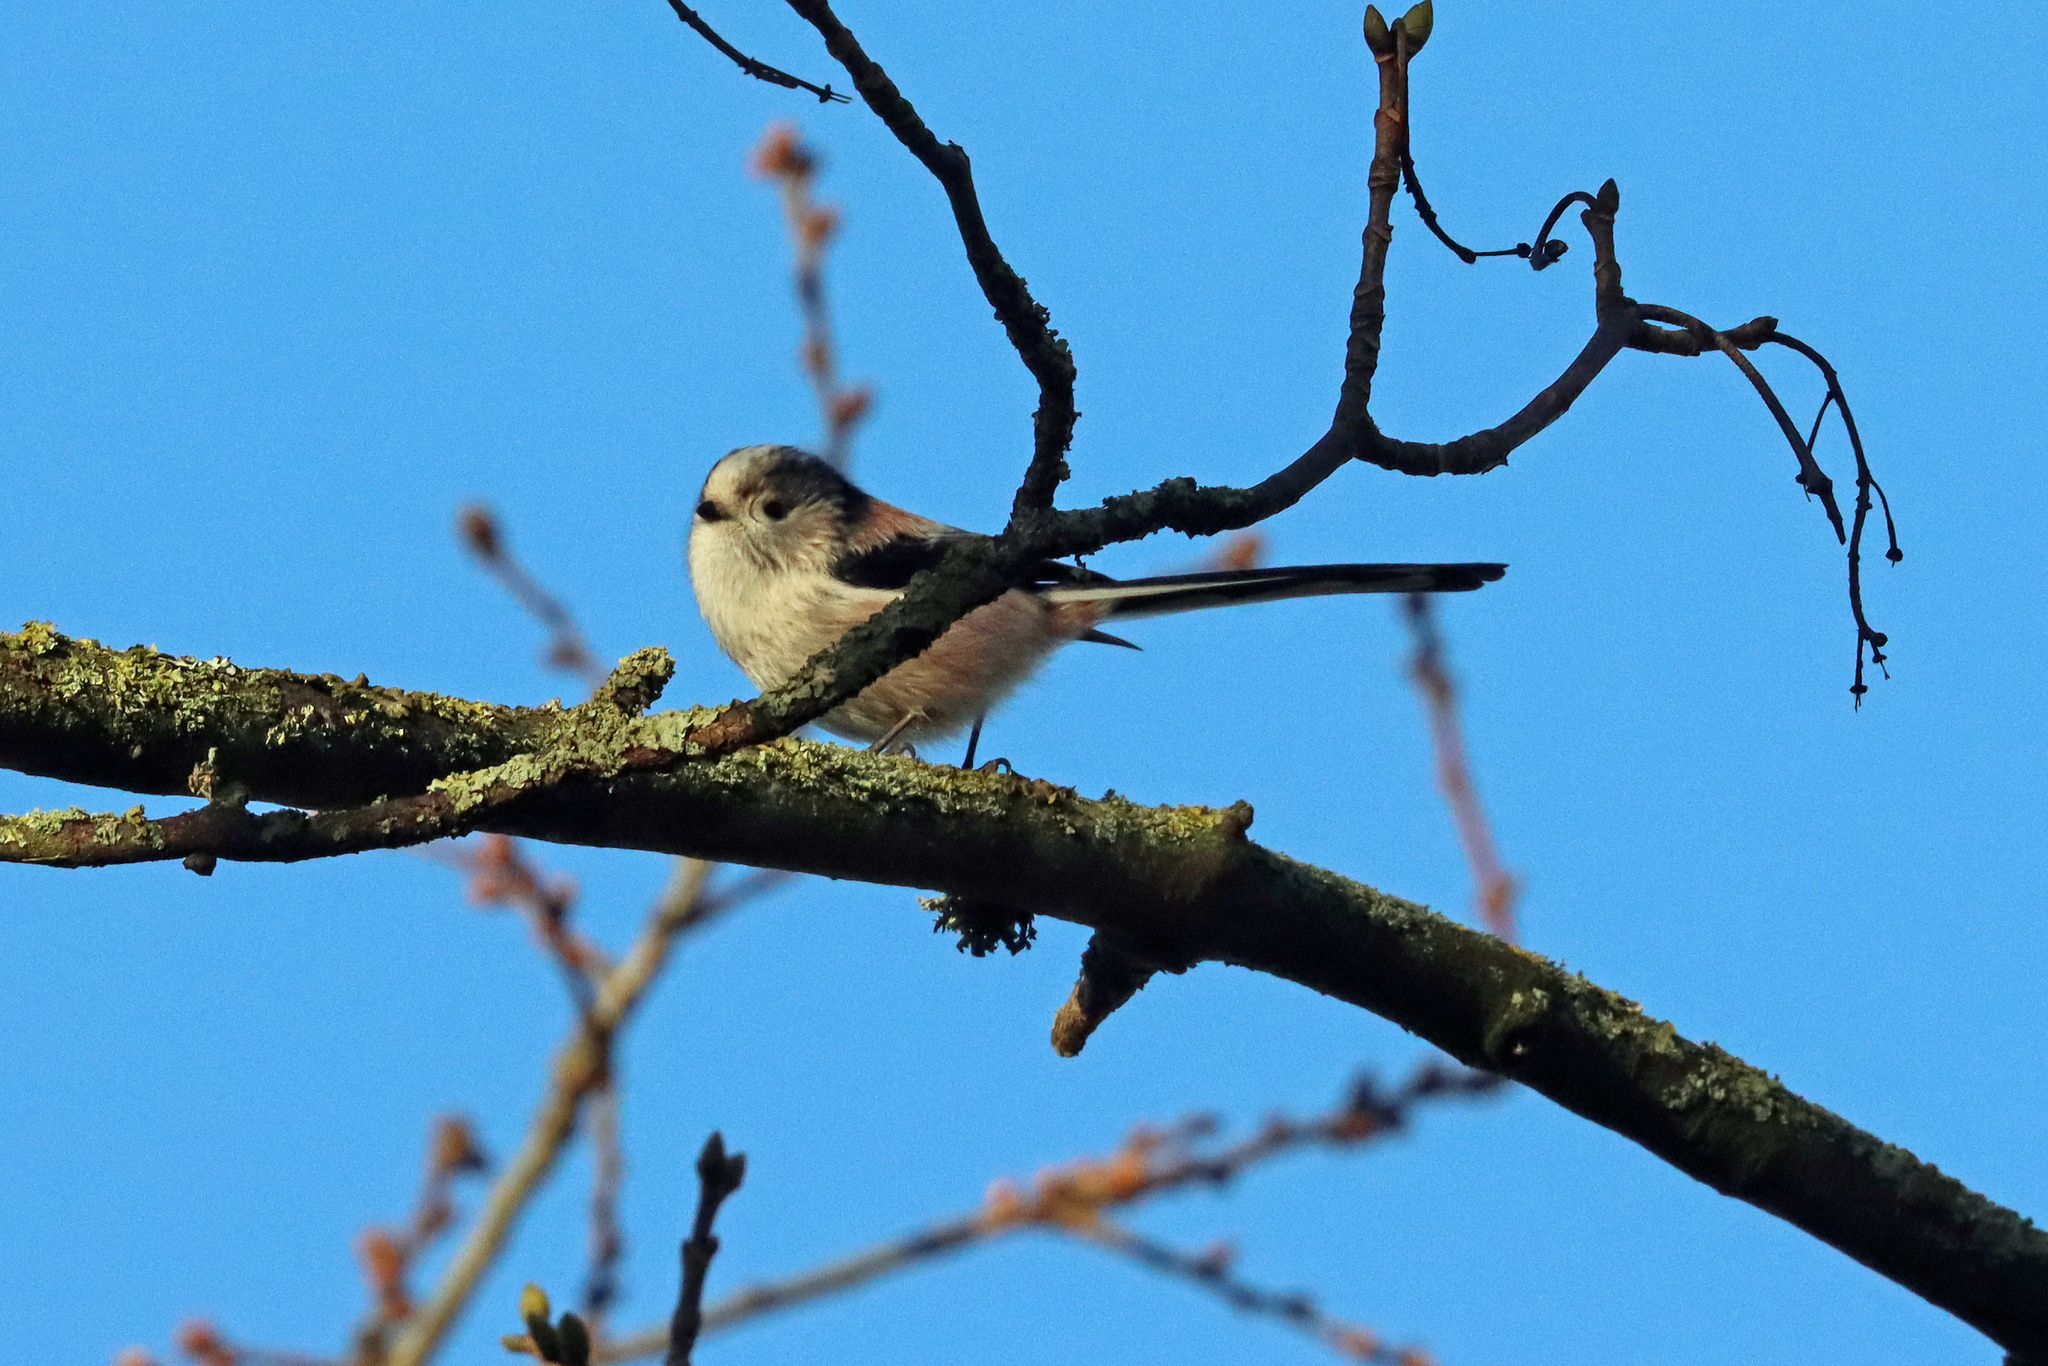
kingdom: Animalia
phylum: Chordata
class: Aves
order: Passeriformes
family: Aegithalidae
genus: Aegithalos
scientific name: Aegithalos caudatus
